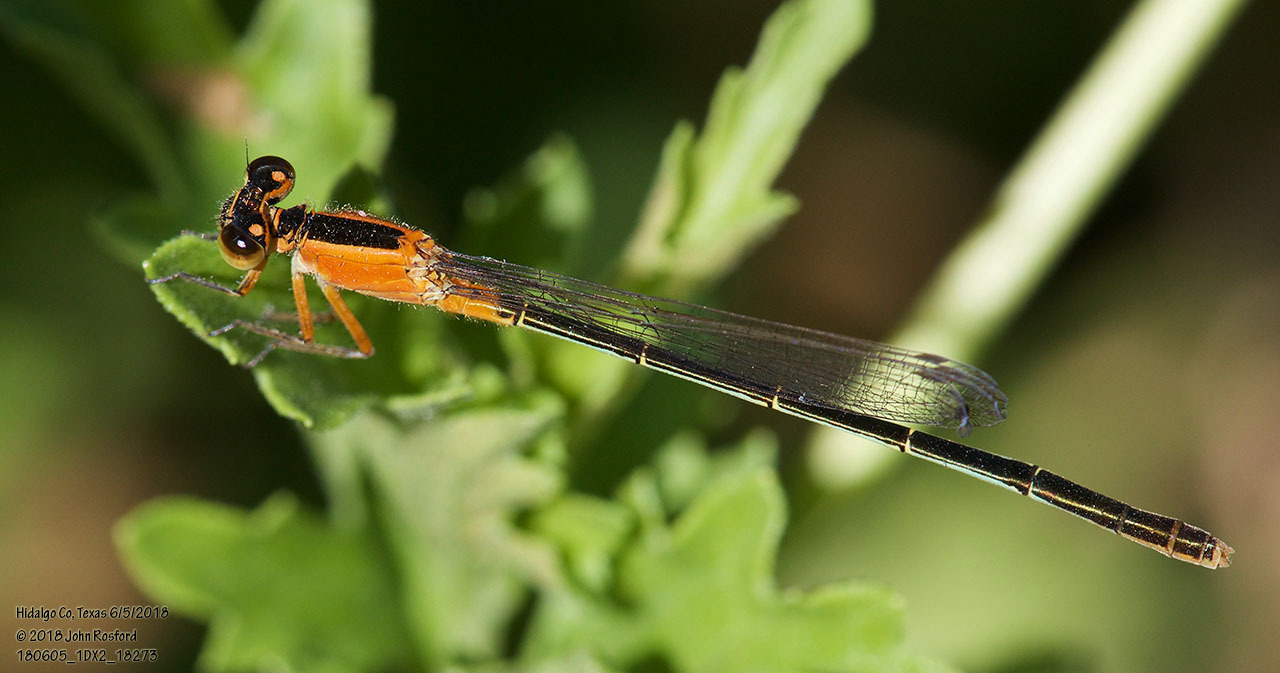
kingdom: Animalia
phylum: Arthropoda
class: Insecta
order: Odonata
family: Coenagrionidae
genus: Ischnura
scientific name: Ischnura ramburii
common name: Rambur's forktail
